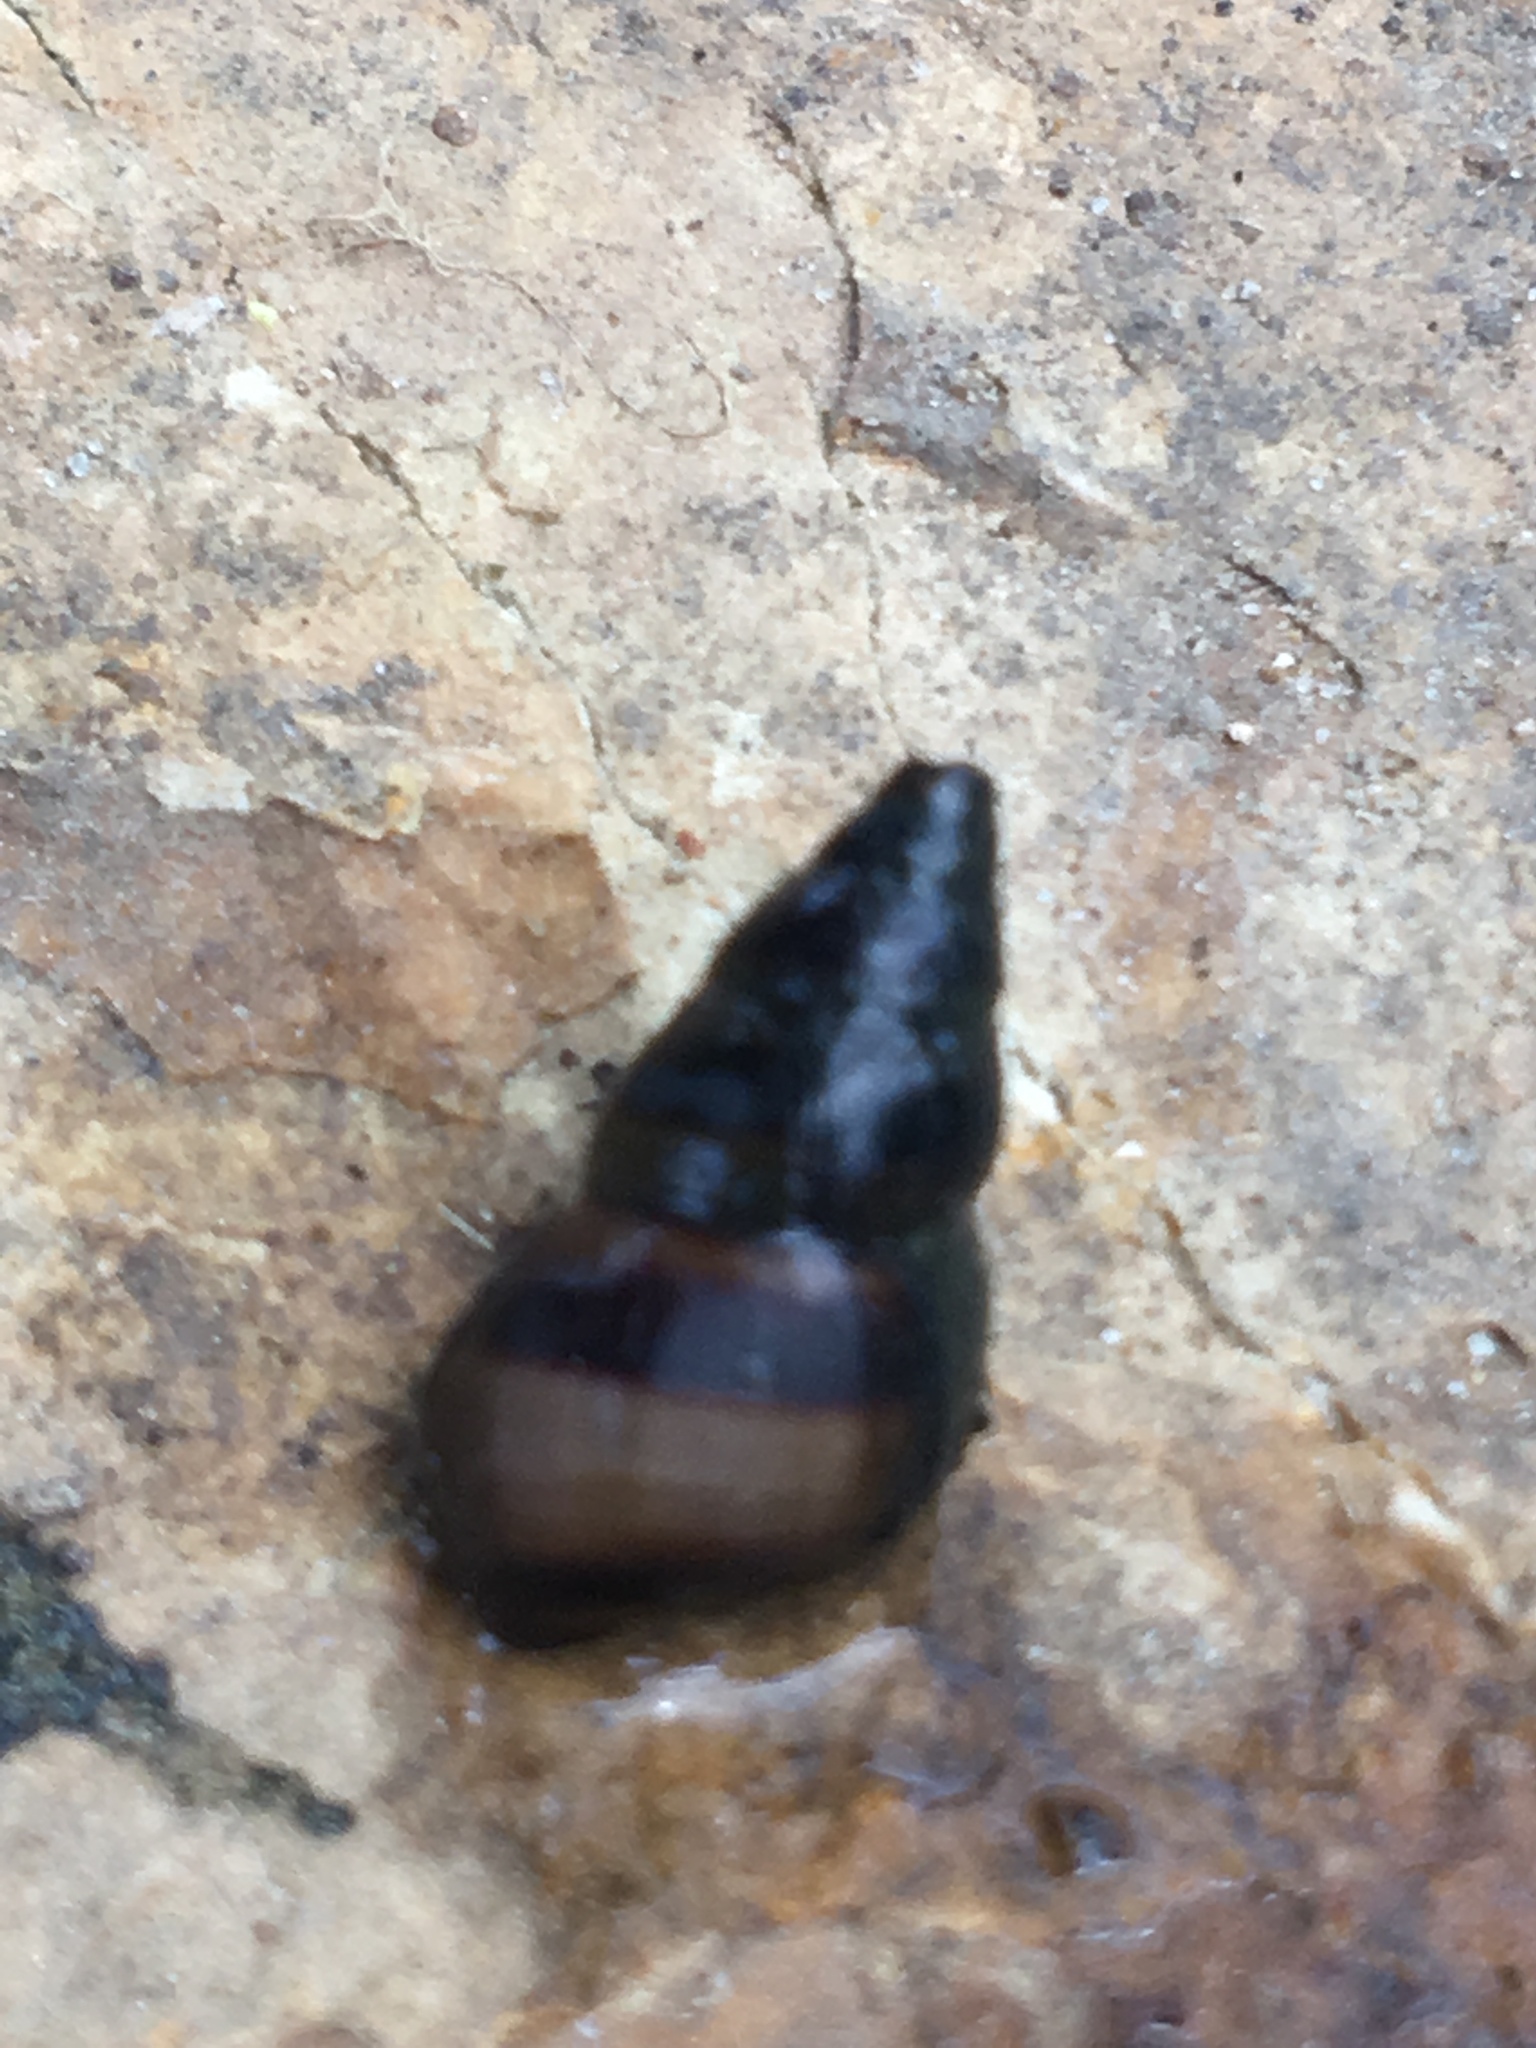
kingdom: Animalia
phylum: Mollusca
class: Gastropoda
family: Pleuroceridae
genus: Elimia
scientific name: Elimia potosiensis
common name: Pyramid elimia
